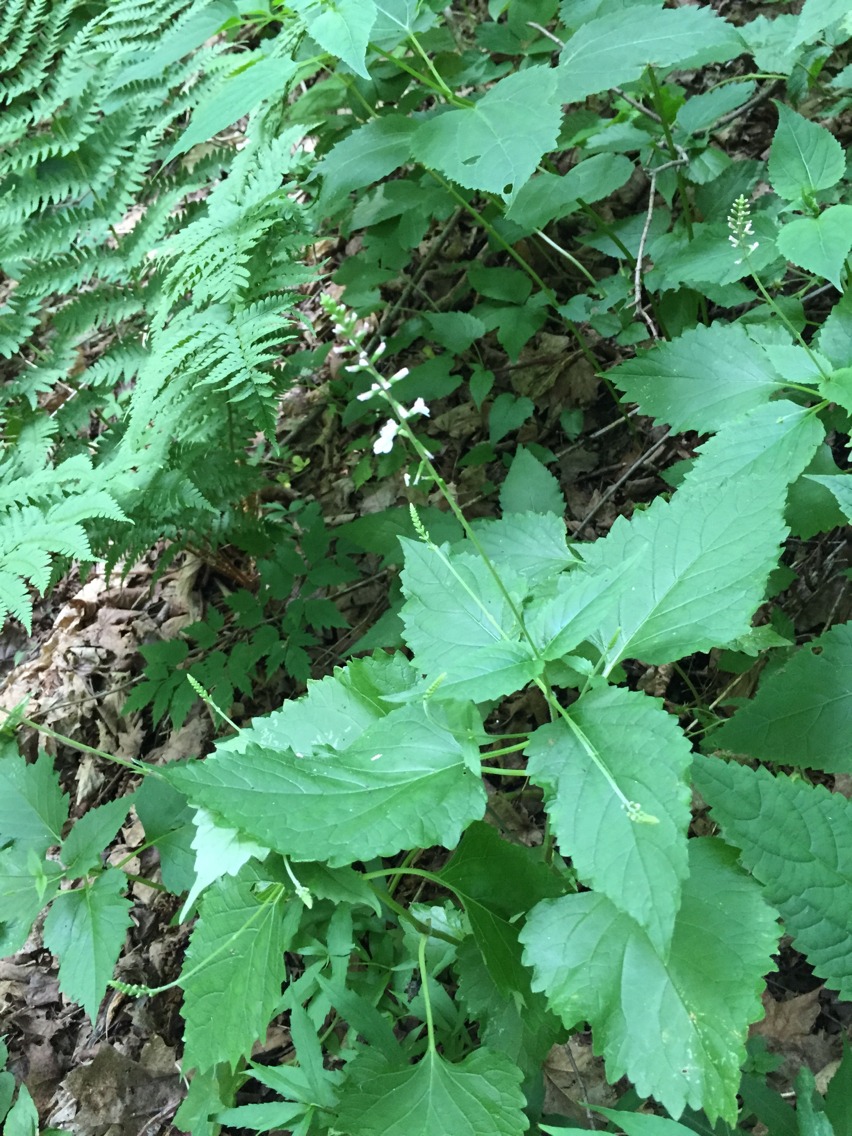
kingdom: Plantae
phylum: Tracheophyta
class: Magnoliopsida
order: Lamiales
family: Phrymaceae
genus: Phryma
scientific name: Phryma leptostachya
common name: American lopseed
